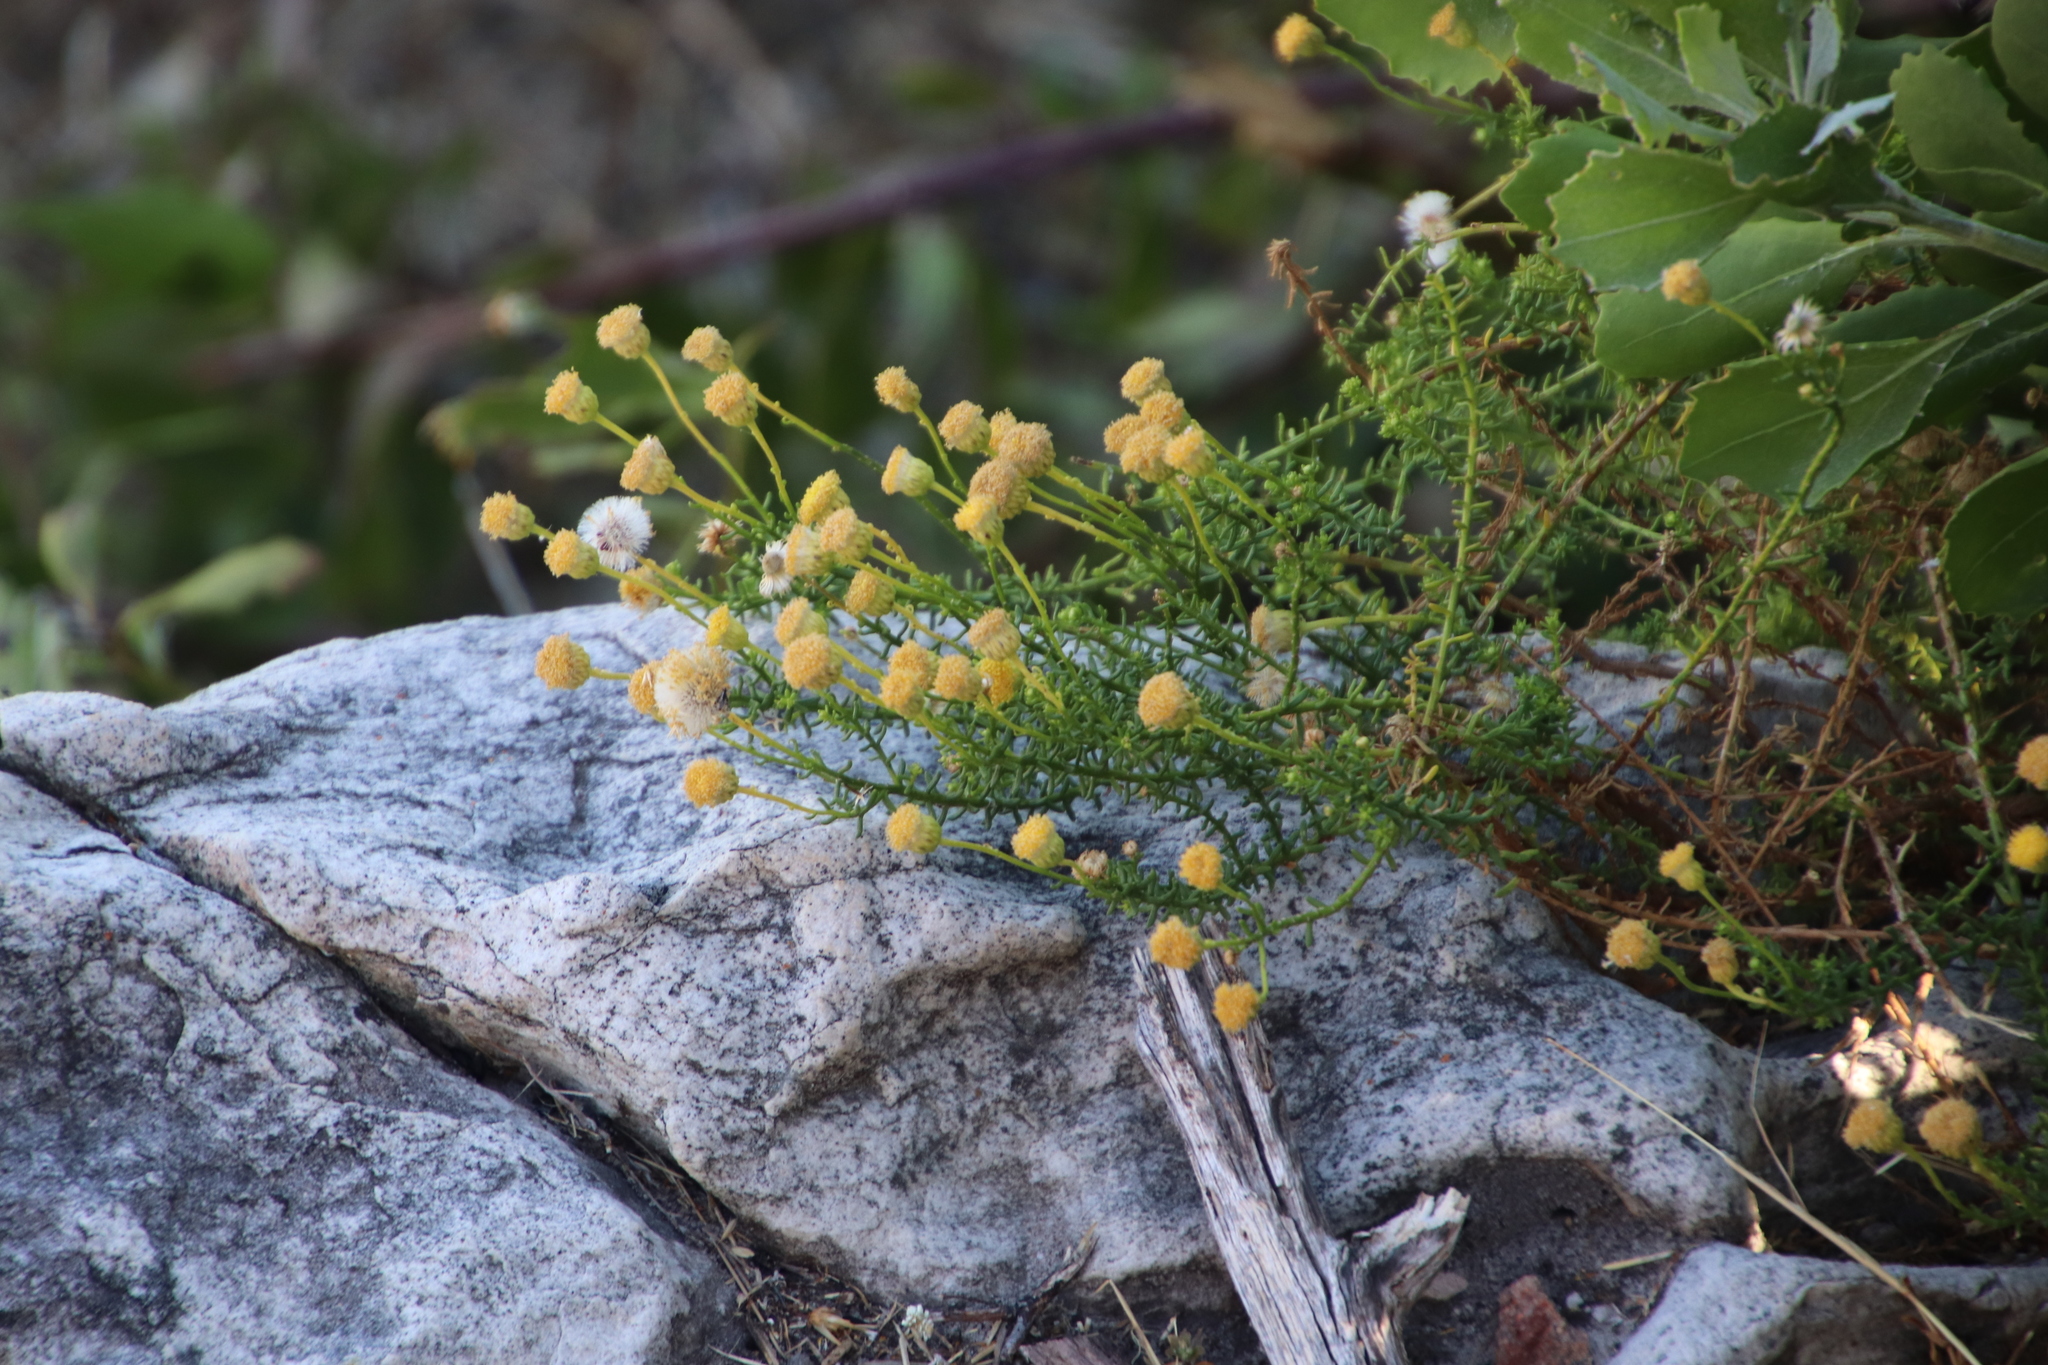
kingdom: Plantae
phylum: Tracheophyta
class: Magnoliopsida
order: Asterales
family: Asteraceae
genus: Chrysocoma
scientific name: Chrysocoma cernua
